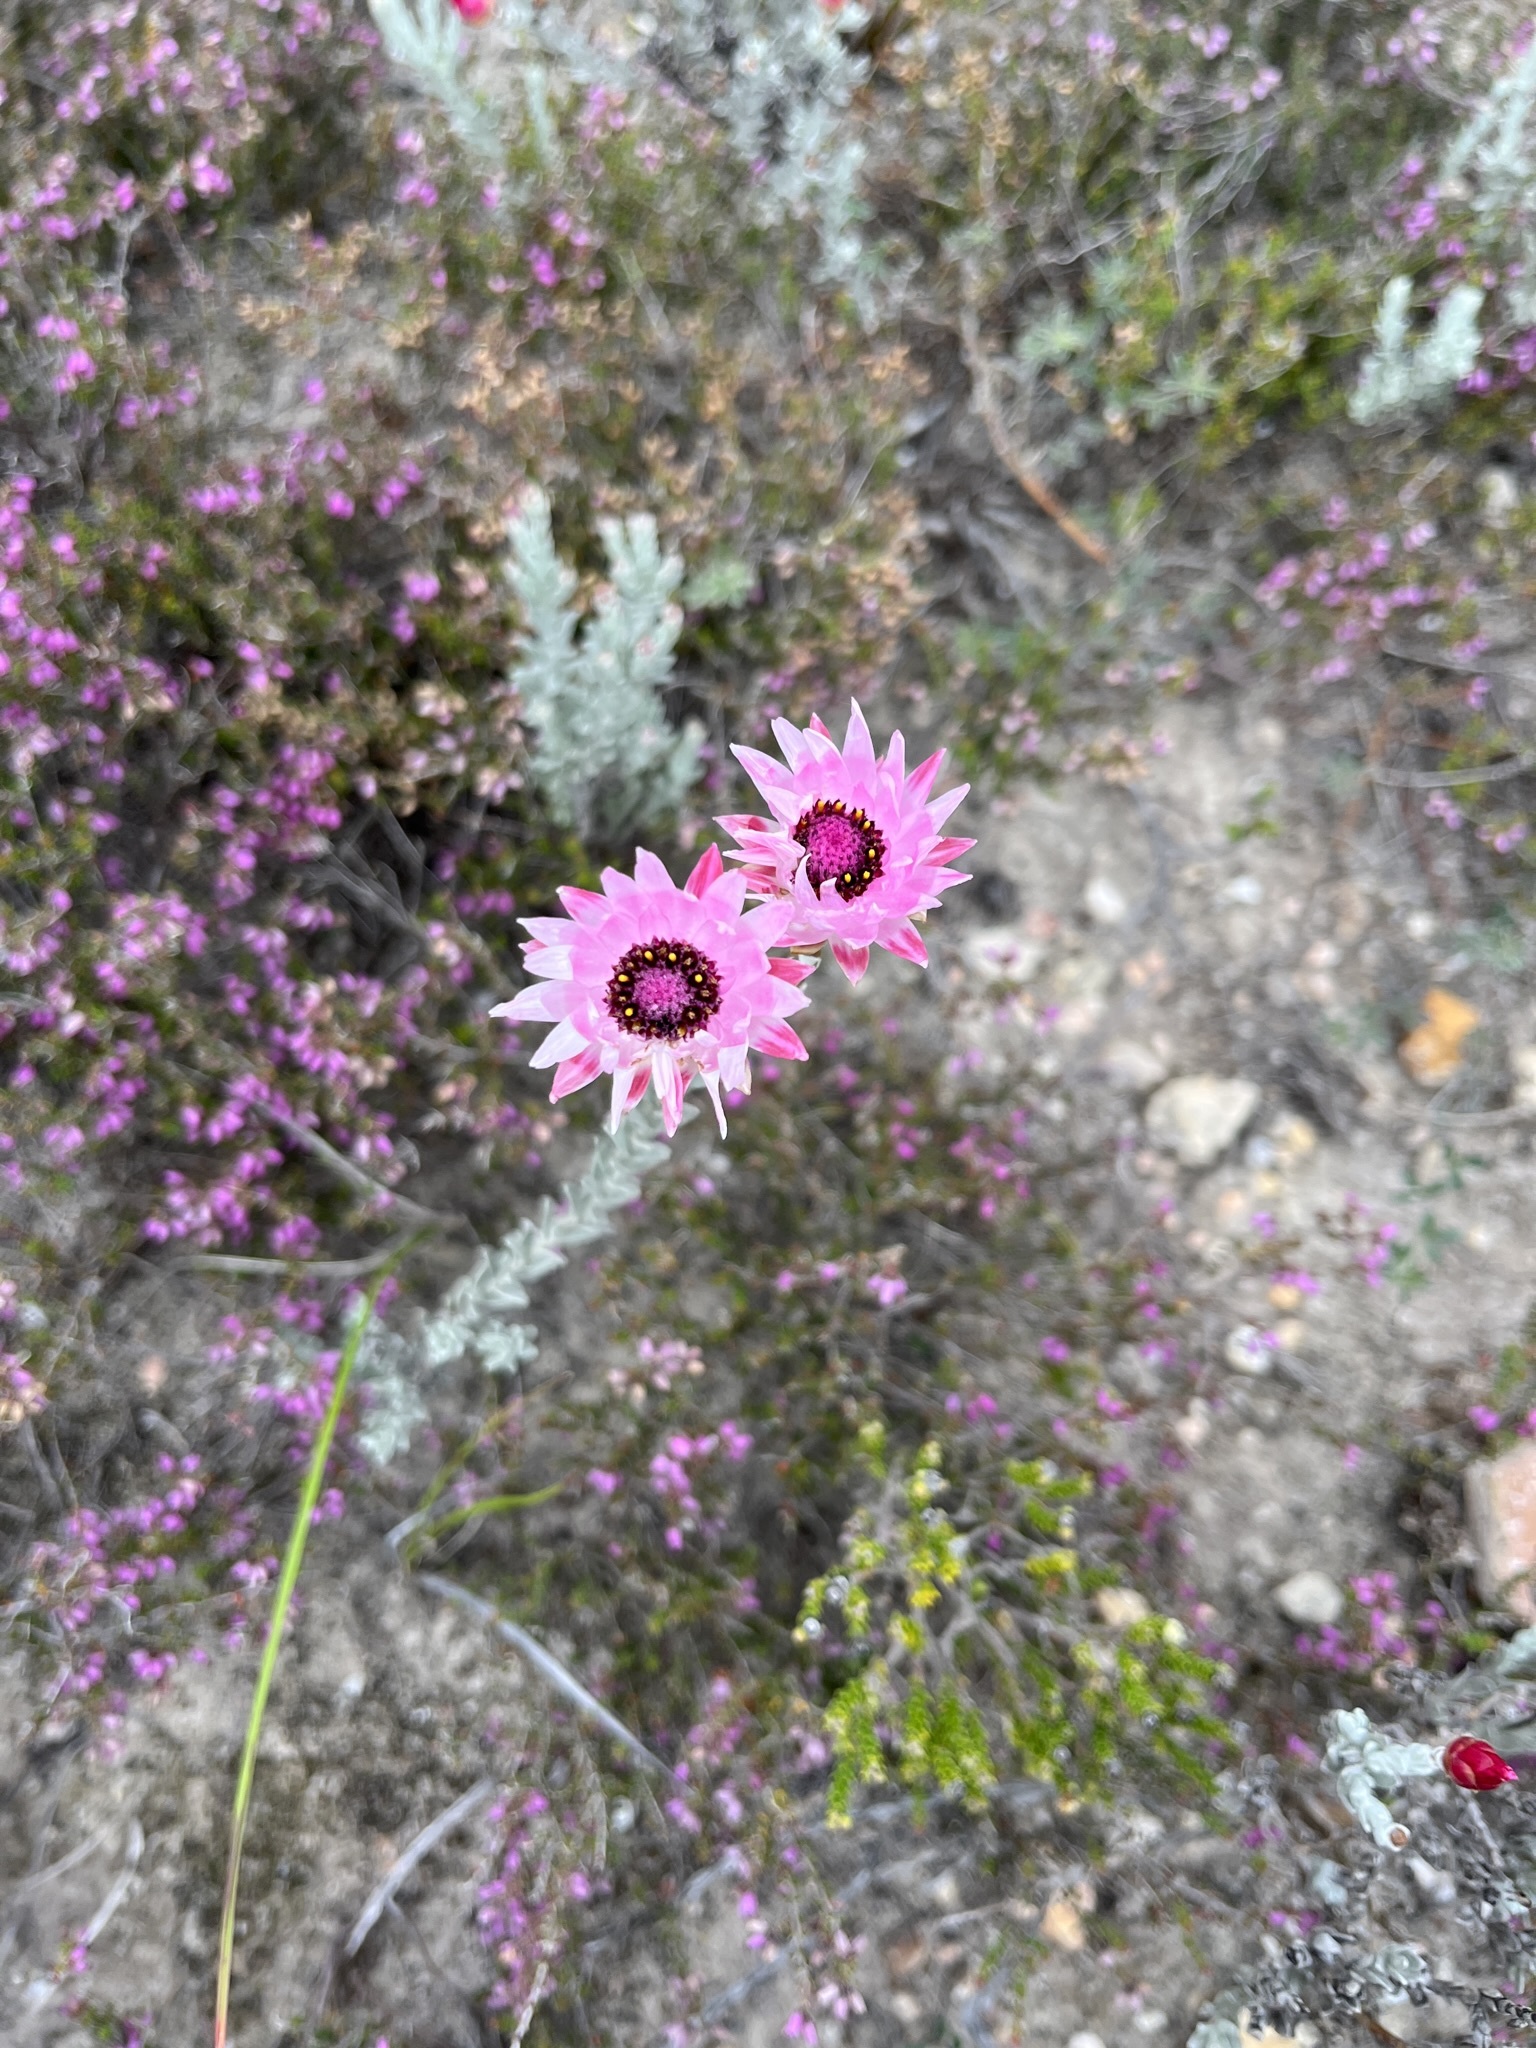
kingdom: Plantae
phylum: Tracheophyta
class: Magnoliopsida
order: Asterales
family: Asteraceae
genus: Syncarpha
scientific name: Syncarpha canescens
